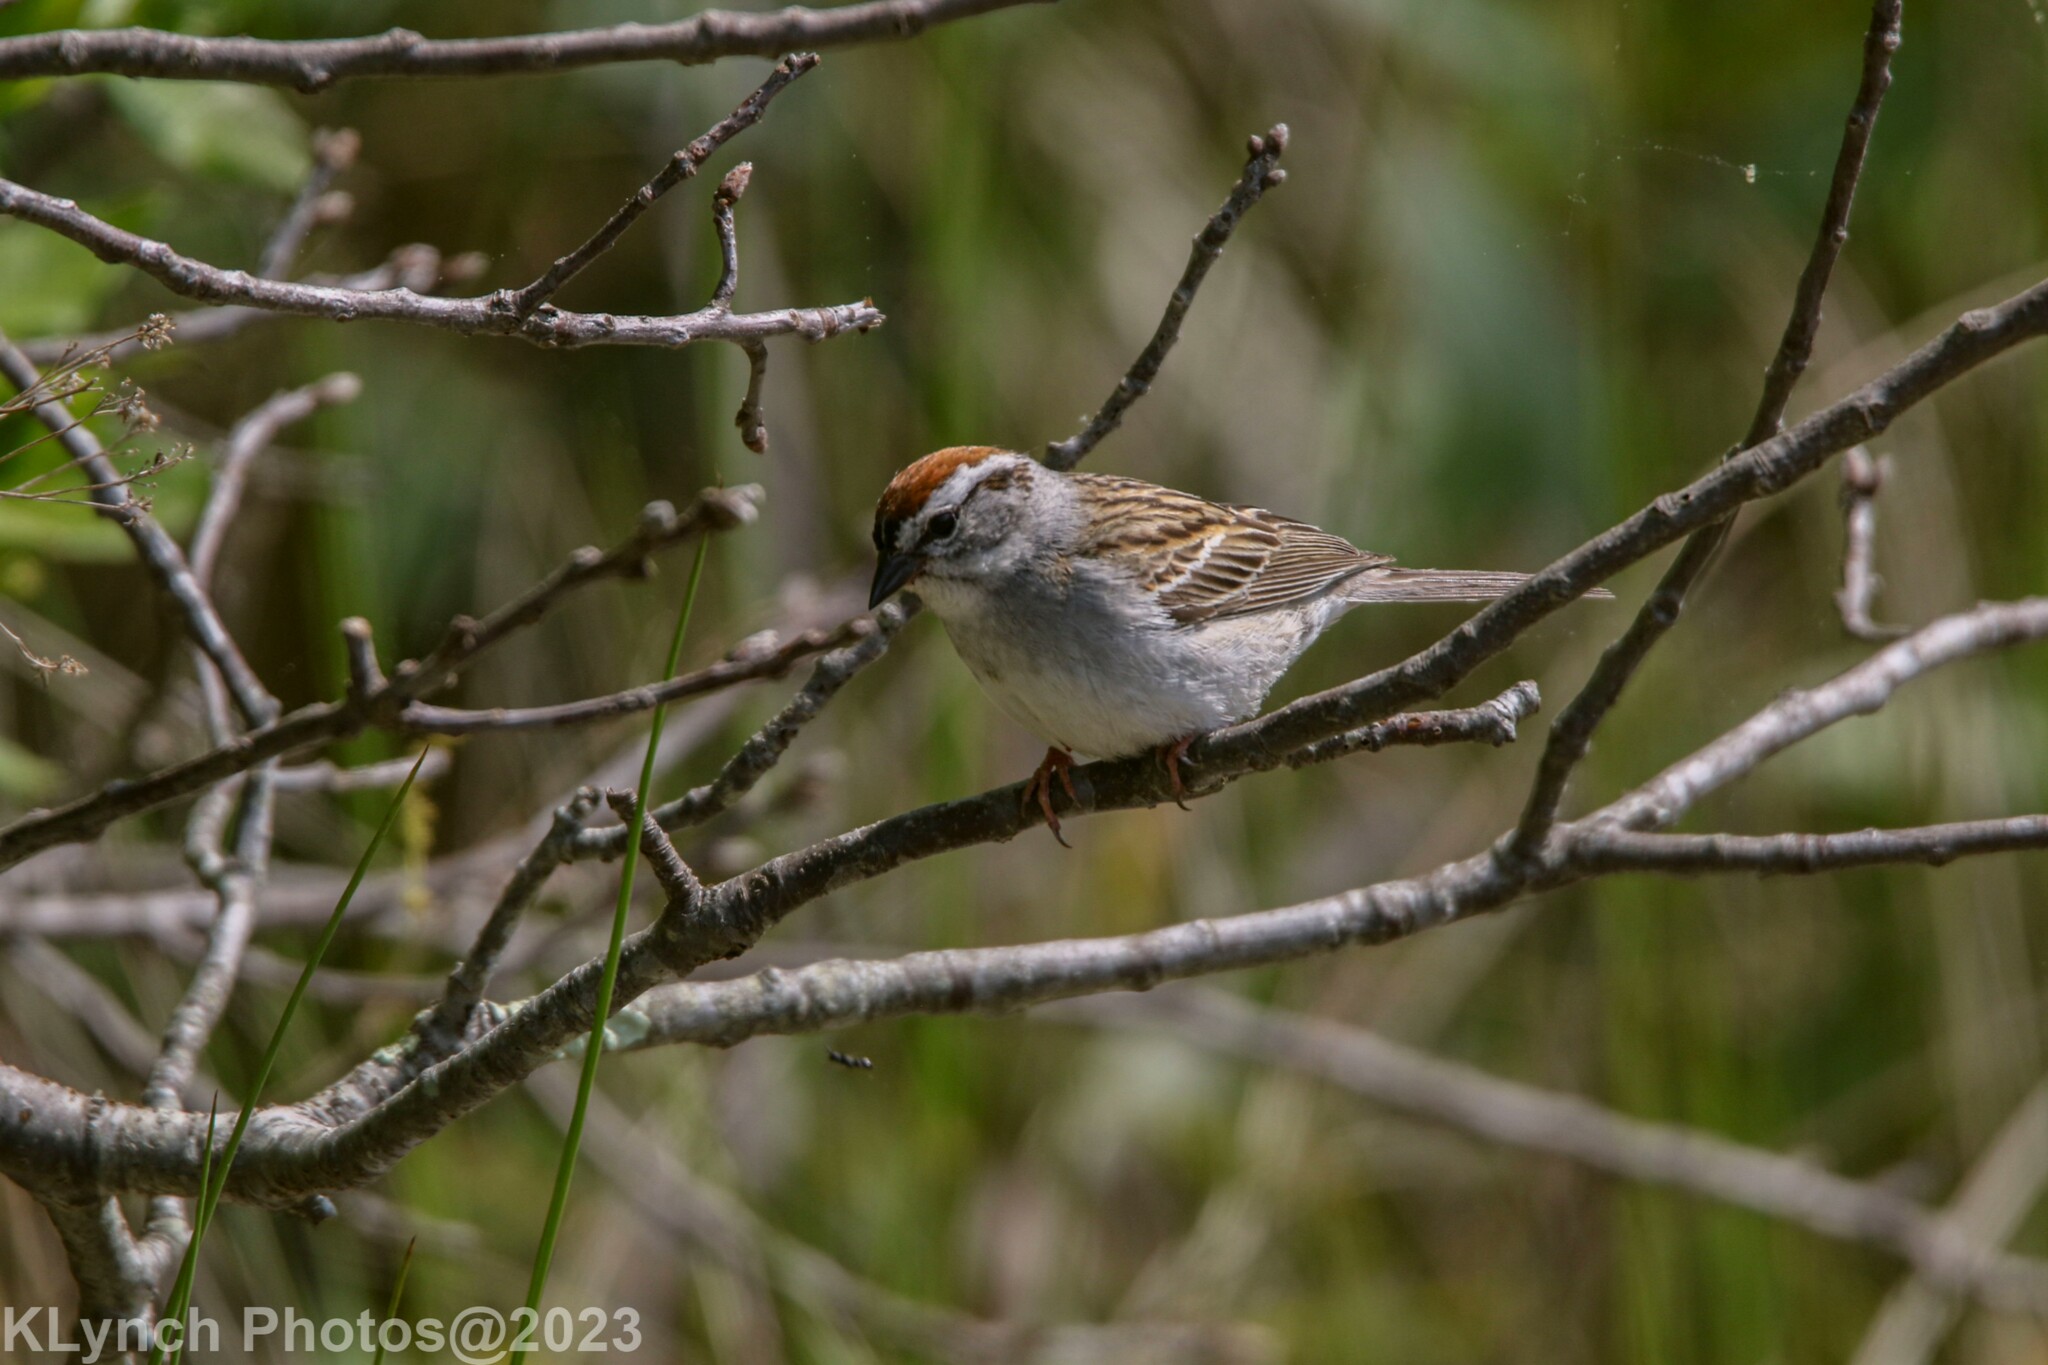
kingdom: Animalia
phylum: Chordata
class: Aves
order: Passeriformes
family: Passerellidae
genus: Spizella
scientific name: Spizella passerina
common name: Chipping sparrow
